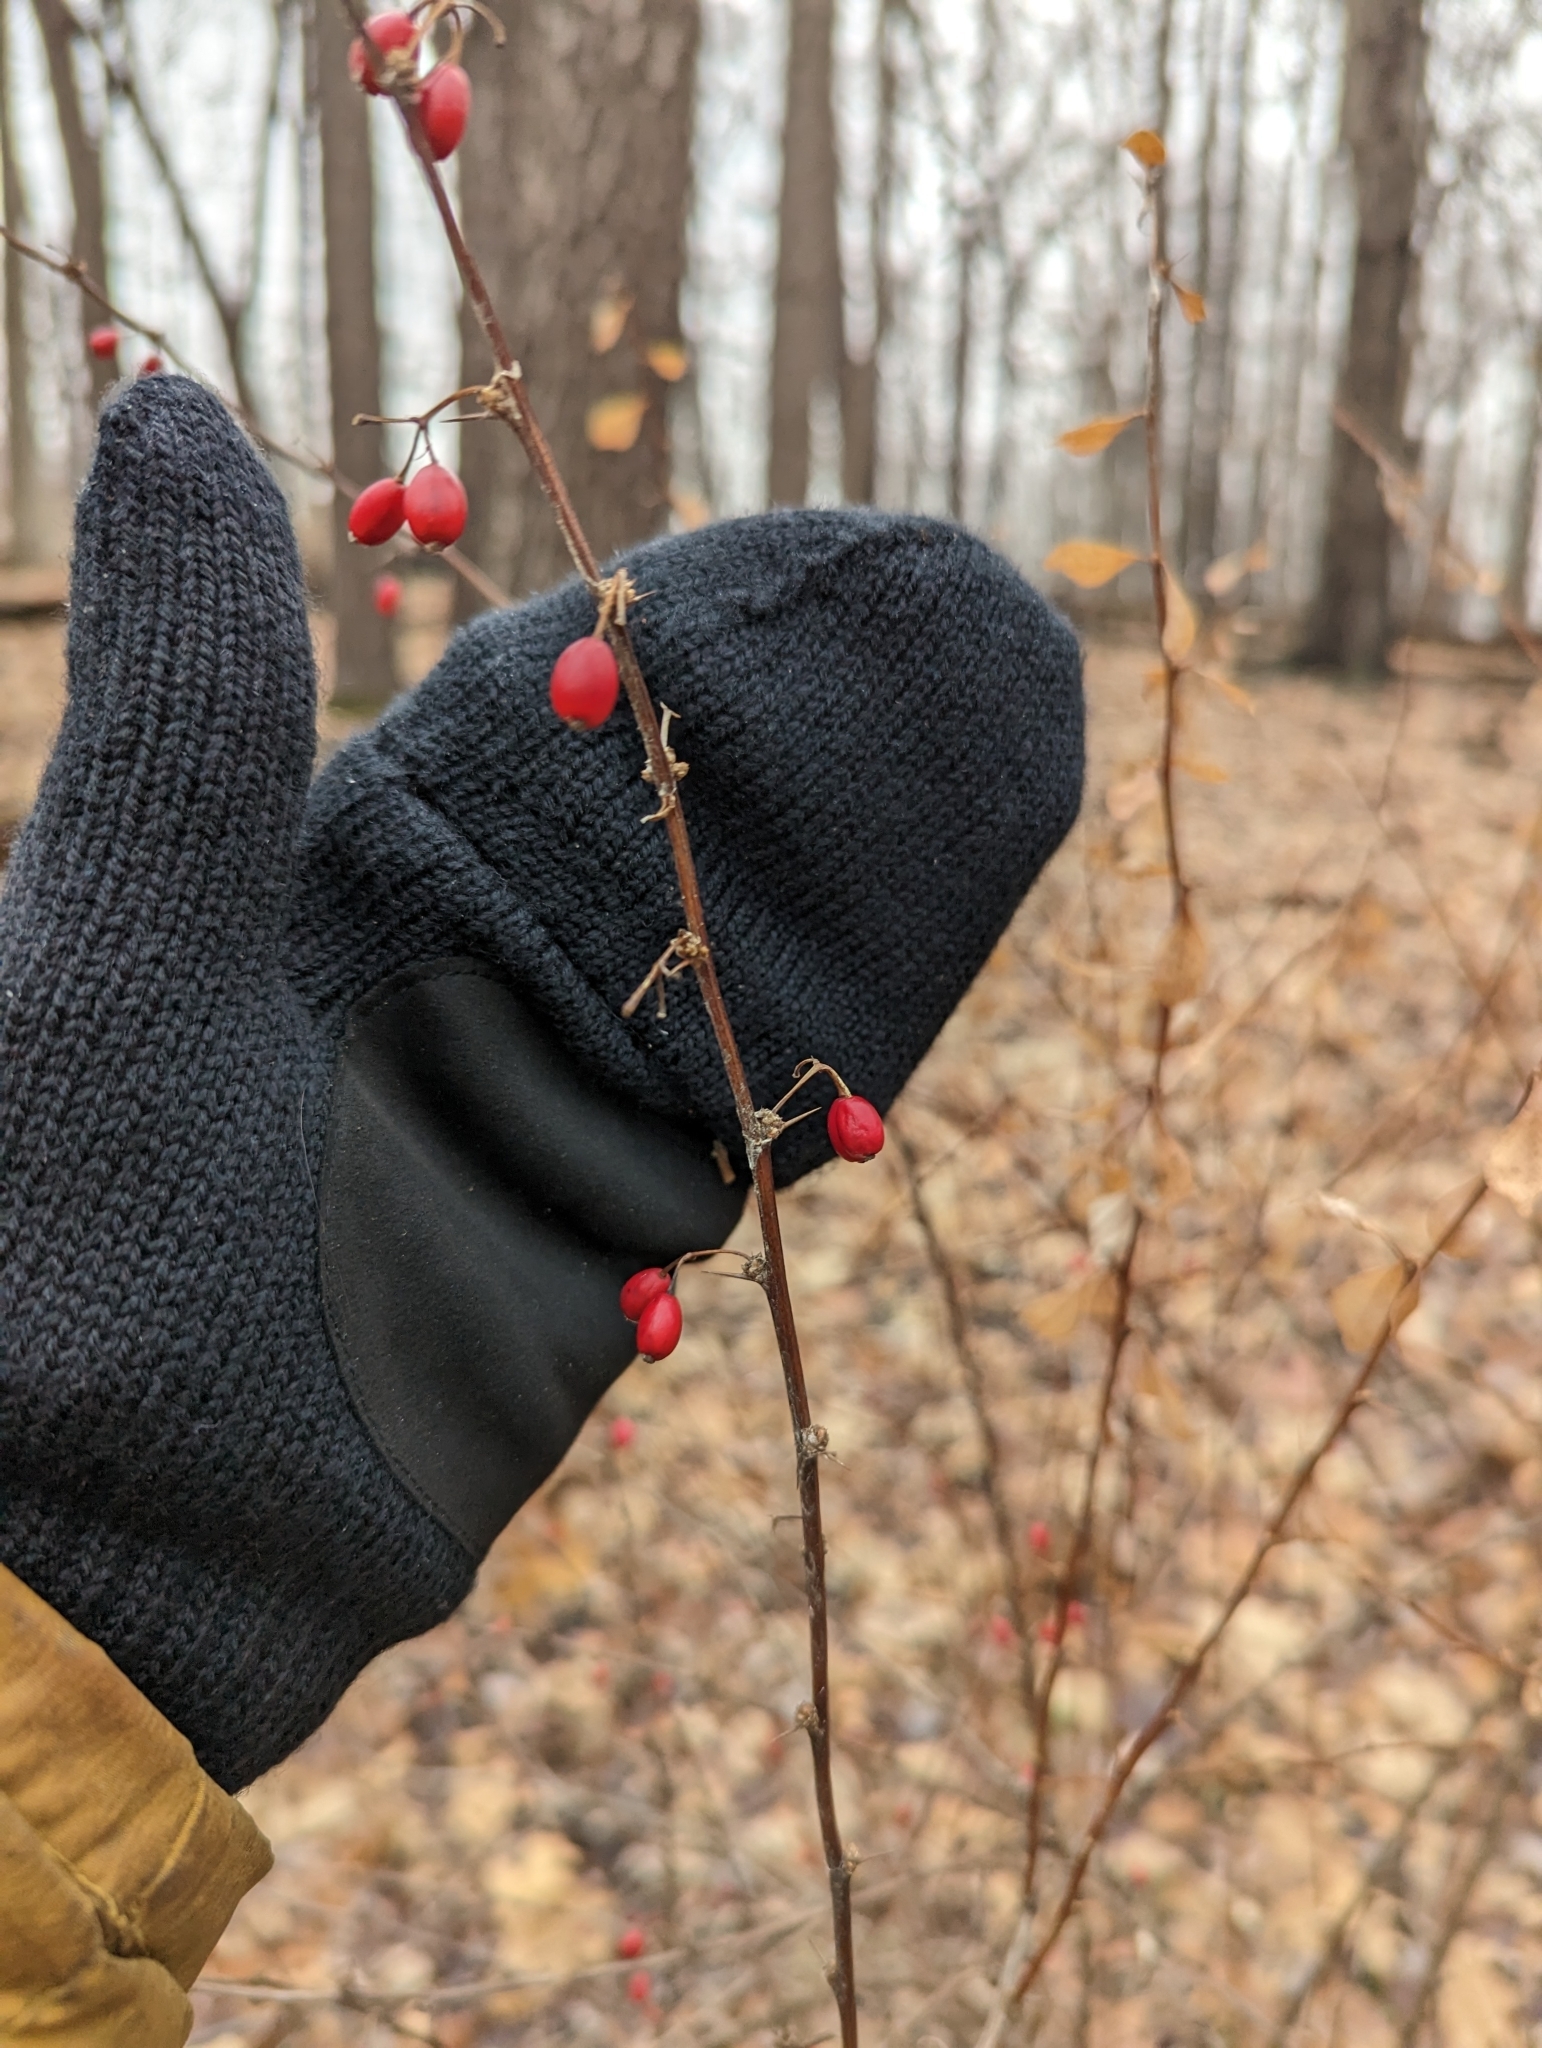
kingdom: Plantae
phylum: Tracheophyta
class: Magnoliopsida
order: Ranunculales
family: Berberidaceae
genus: Berberis
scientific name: Berberis thunbergii
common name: Japanese barberry
